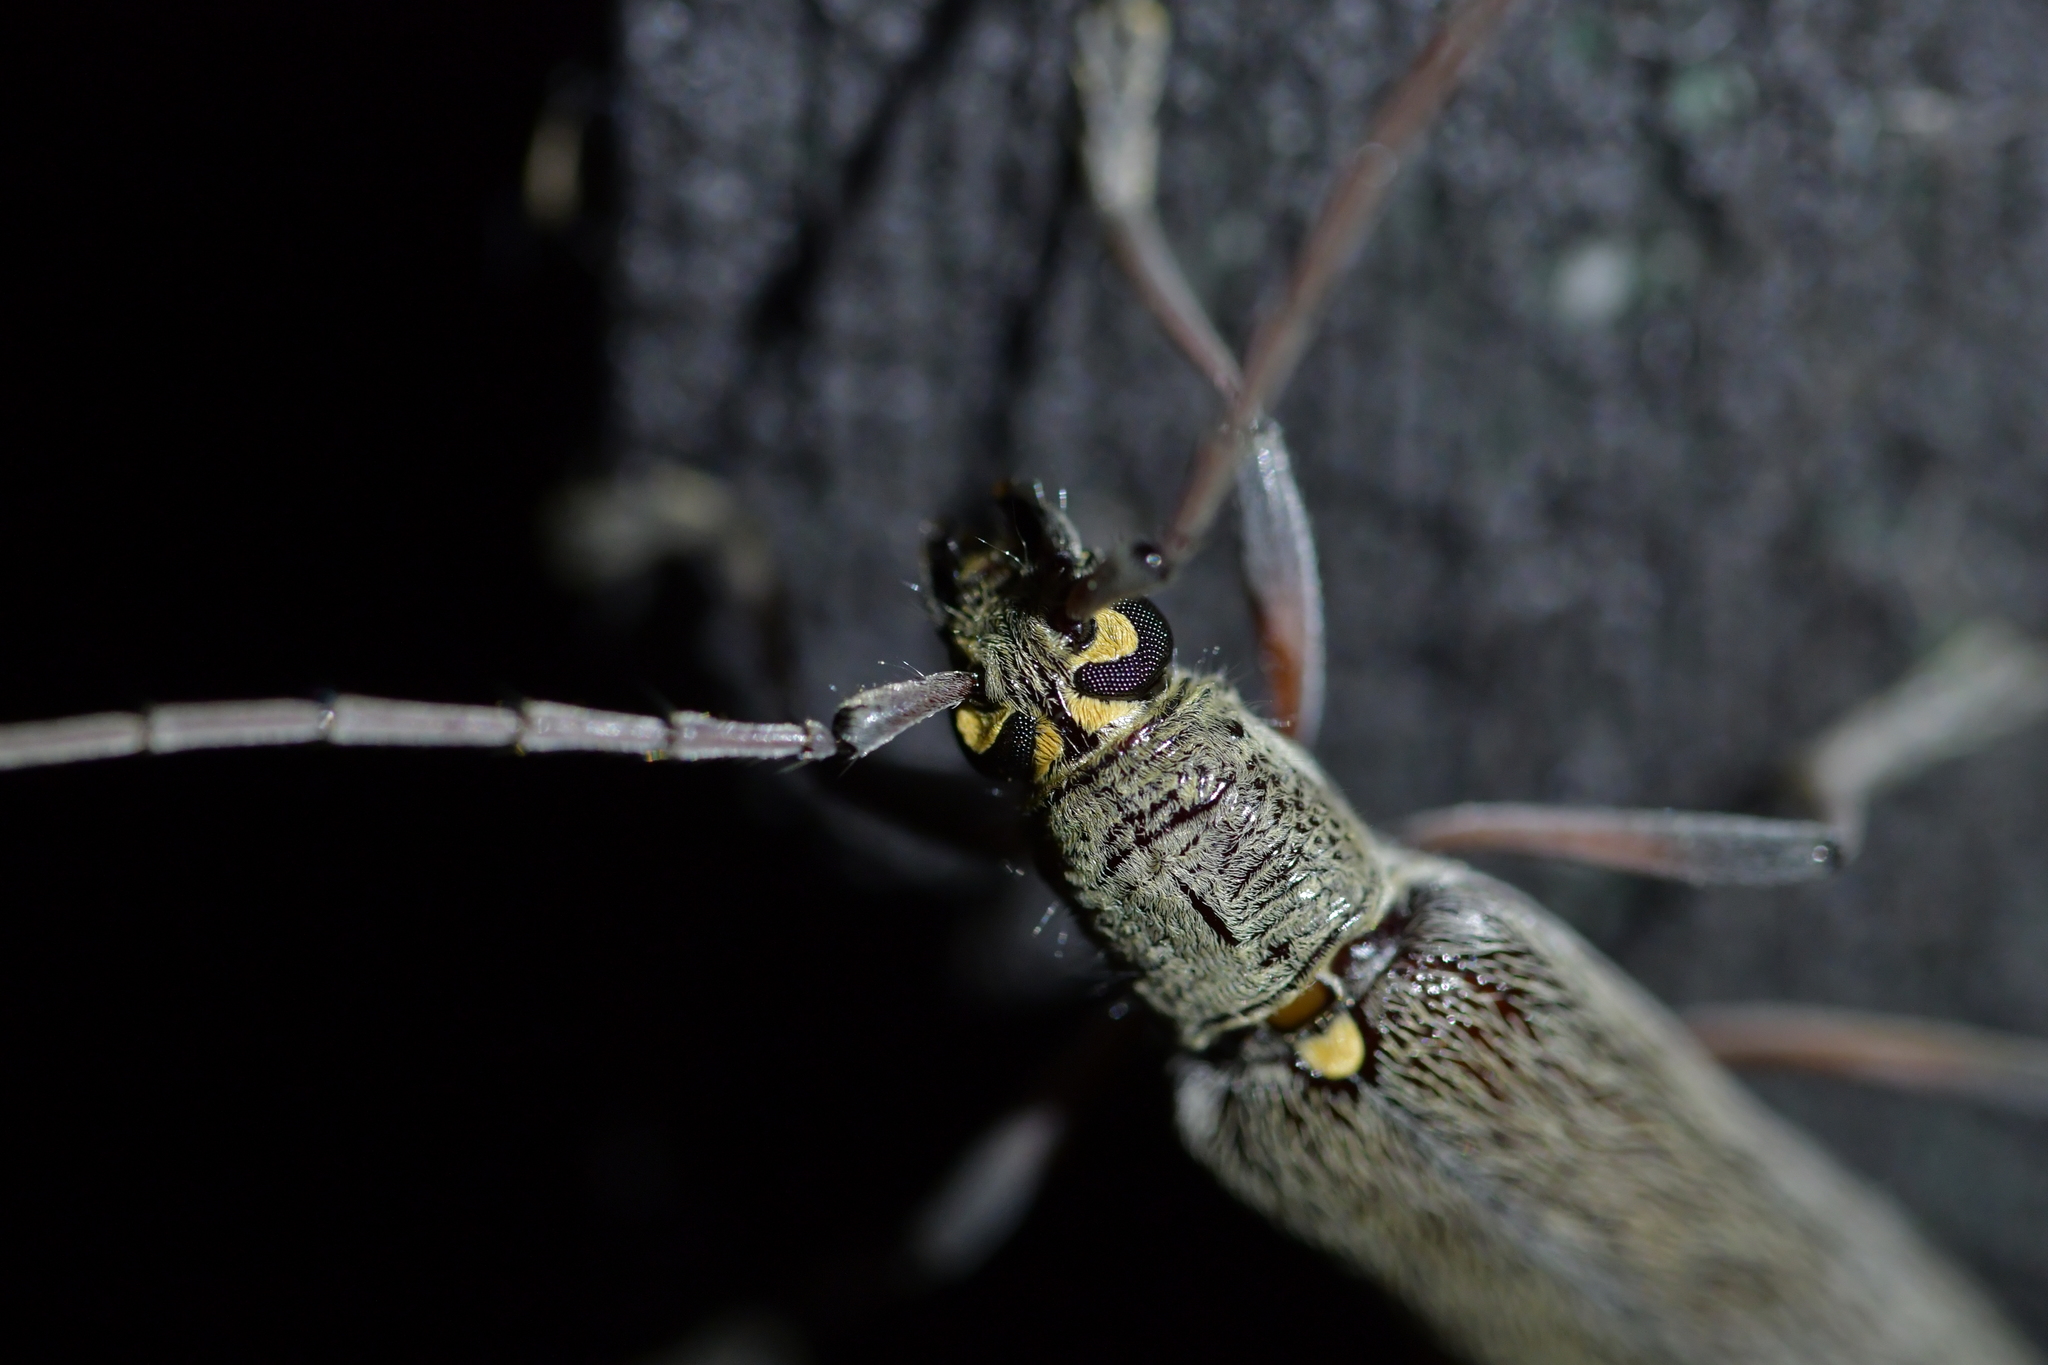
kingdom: Animalia
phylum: Arthropoda
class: Insecta
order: Coleoptera
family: Cerambycidae
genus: Oemona
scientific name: Oemona hirta
